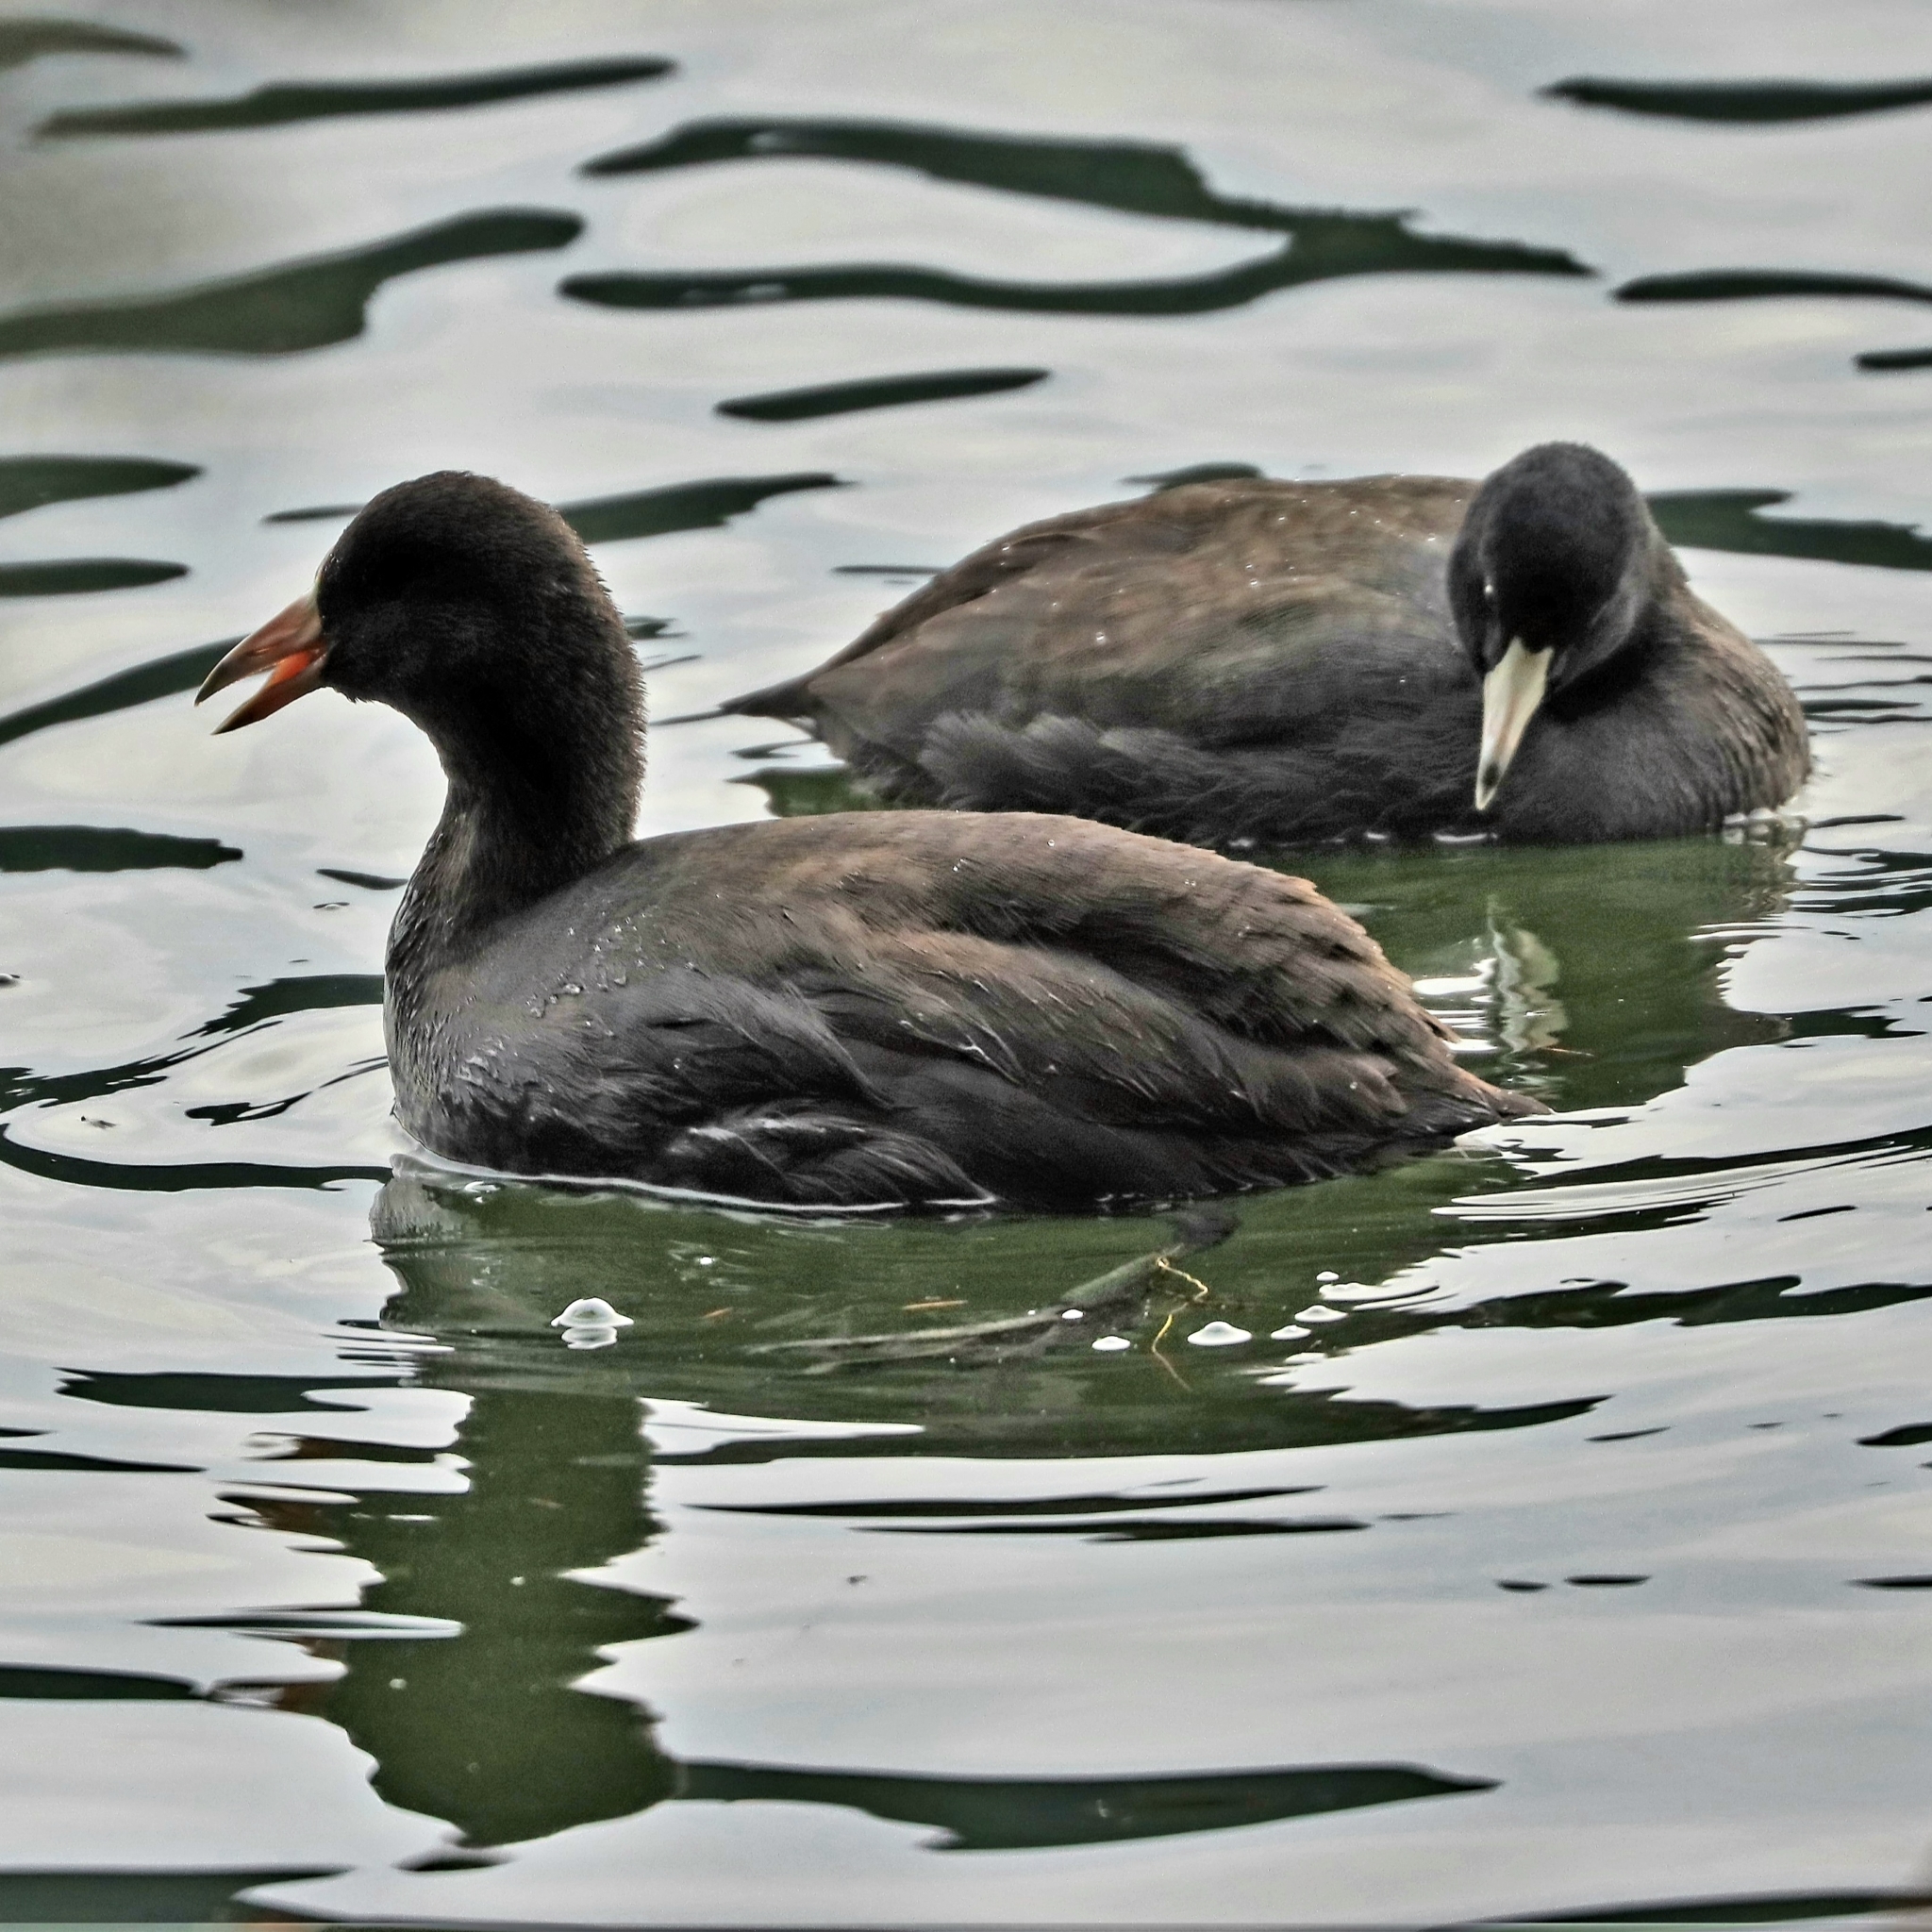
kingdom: Animalia
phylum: Chordata
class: Aves
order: Gruiformes
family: Rallidae
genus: Fulica
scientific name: Fulica americana
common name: American coot
